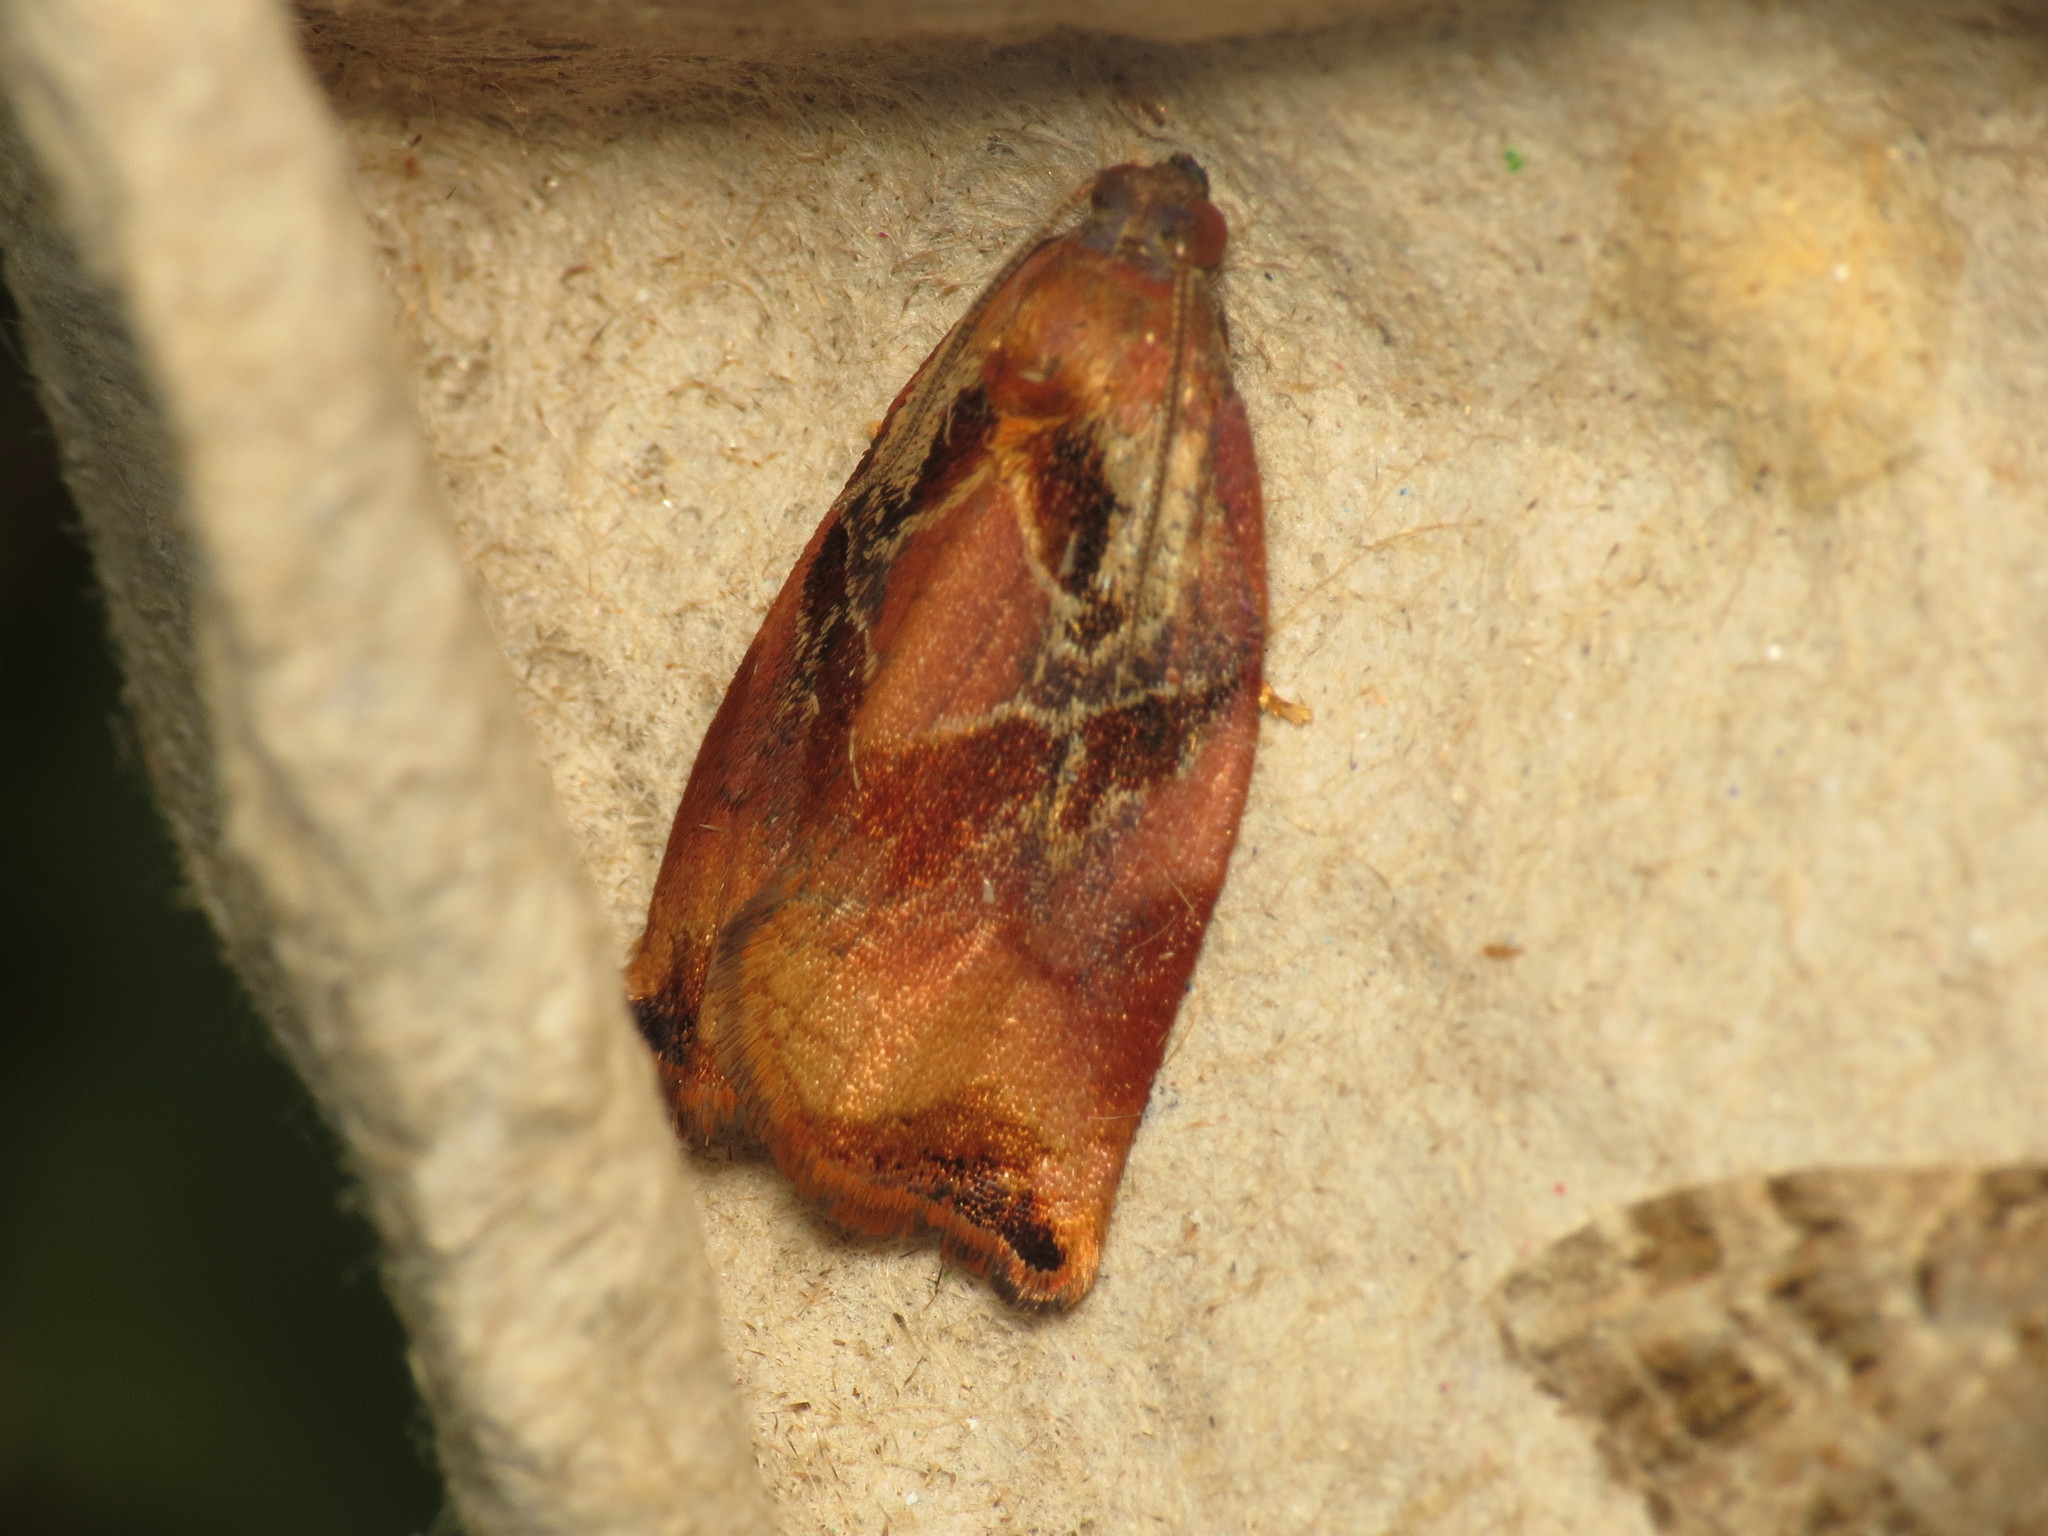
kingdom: Animalia
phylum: Arthropoda
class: Insecta
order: Lepidoptera
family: Tortricidae
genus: Archips
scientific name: Archips podana
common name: Large fruit-tree tortrix
